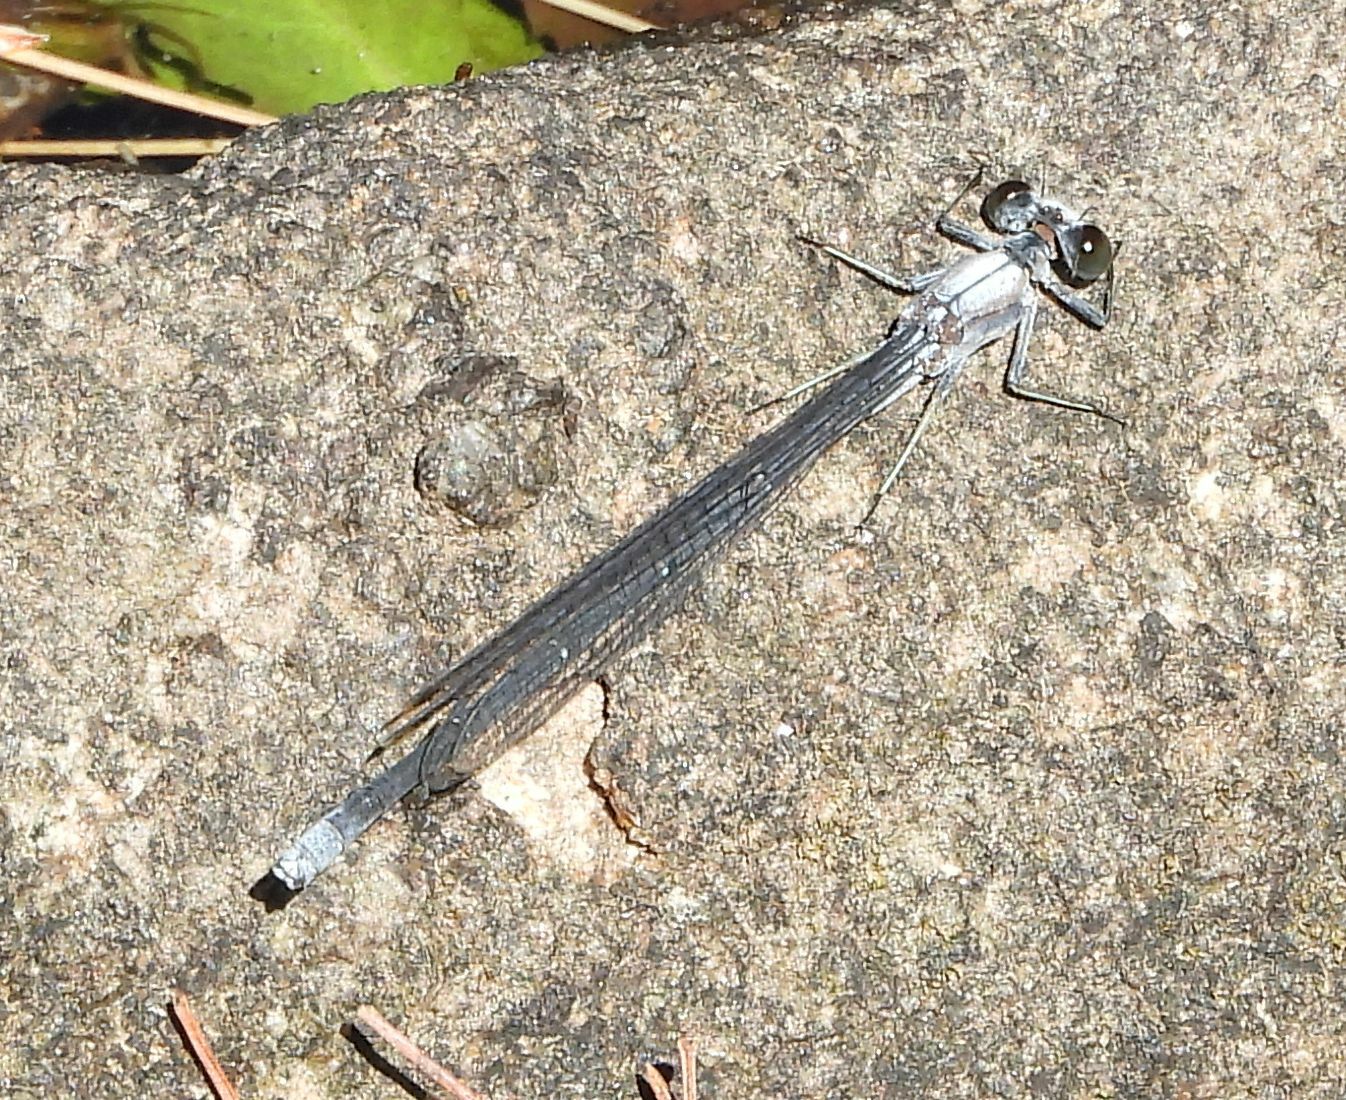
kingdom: Animalia
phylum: Arthropoda
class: Insecta
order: Odonata
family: Coenagrionidae
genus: Argia
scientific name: Argia moesta
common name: Powdered dancer
